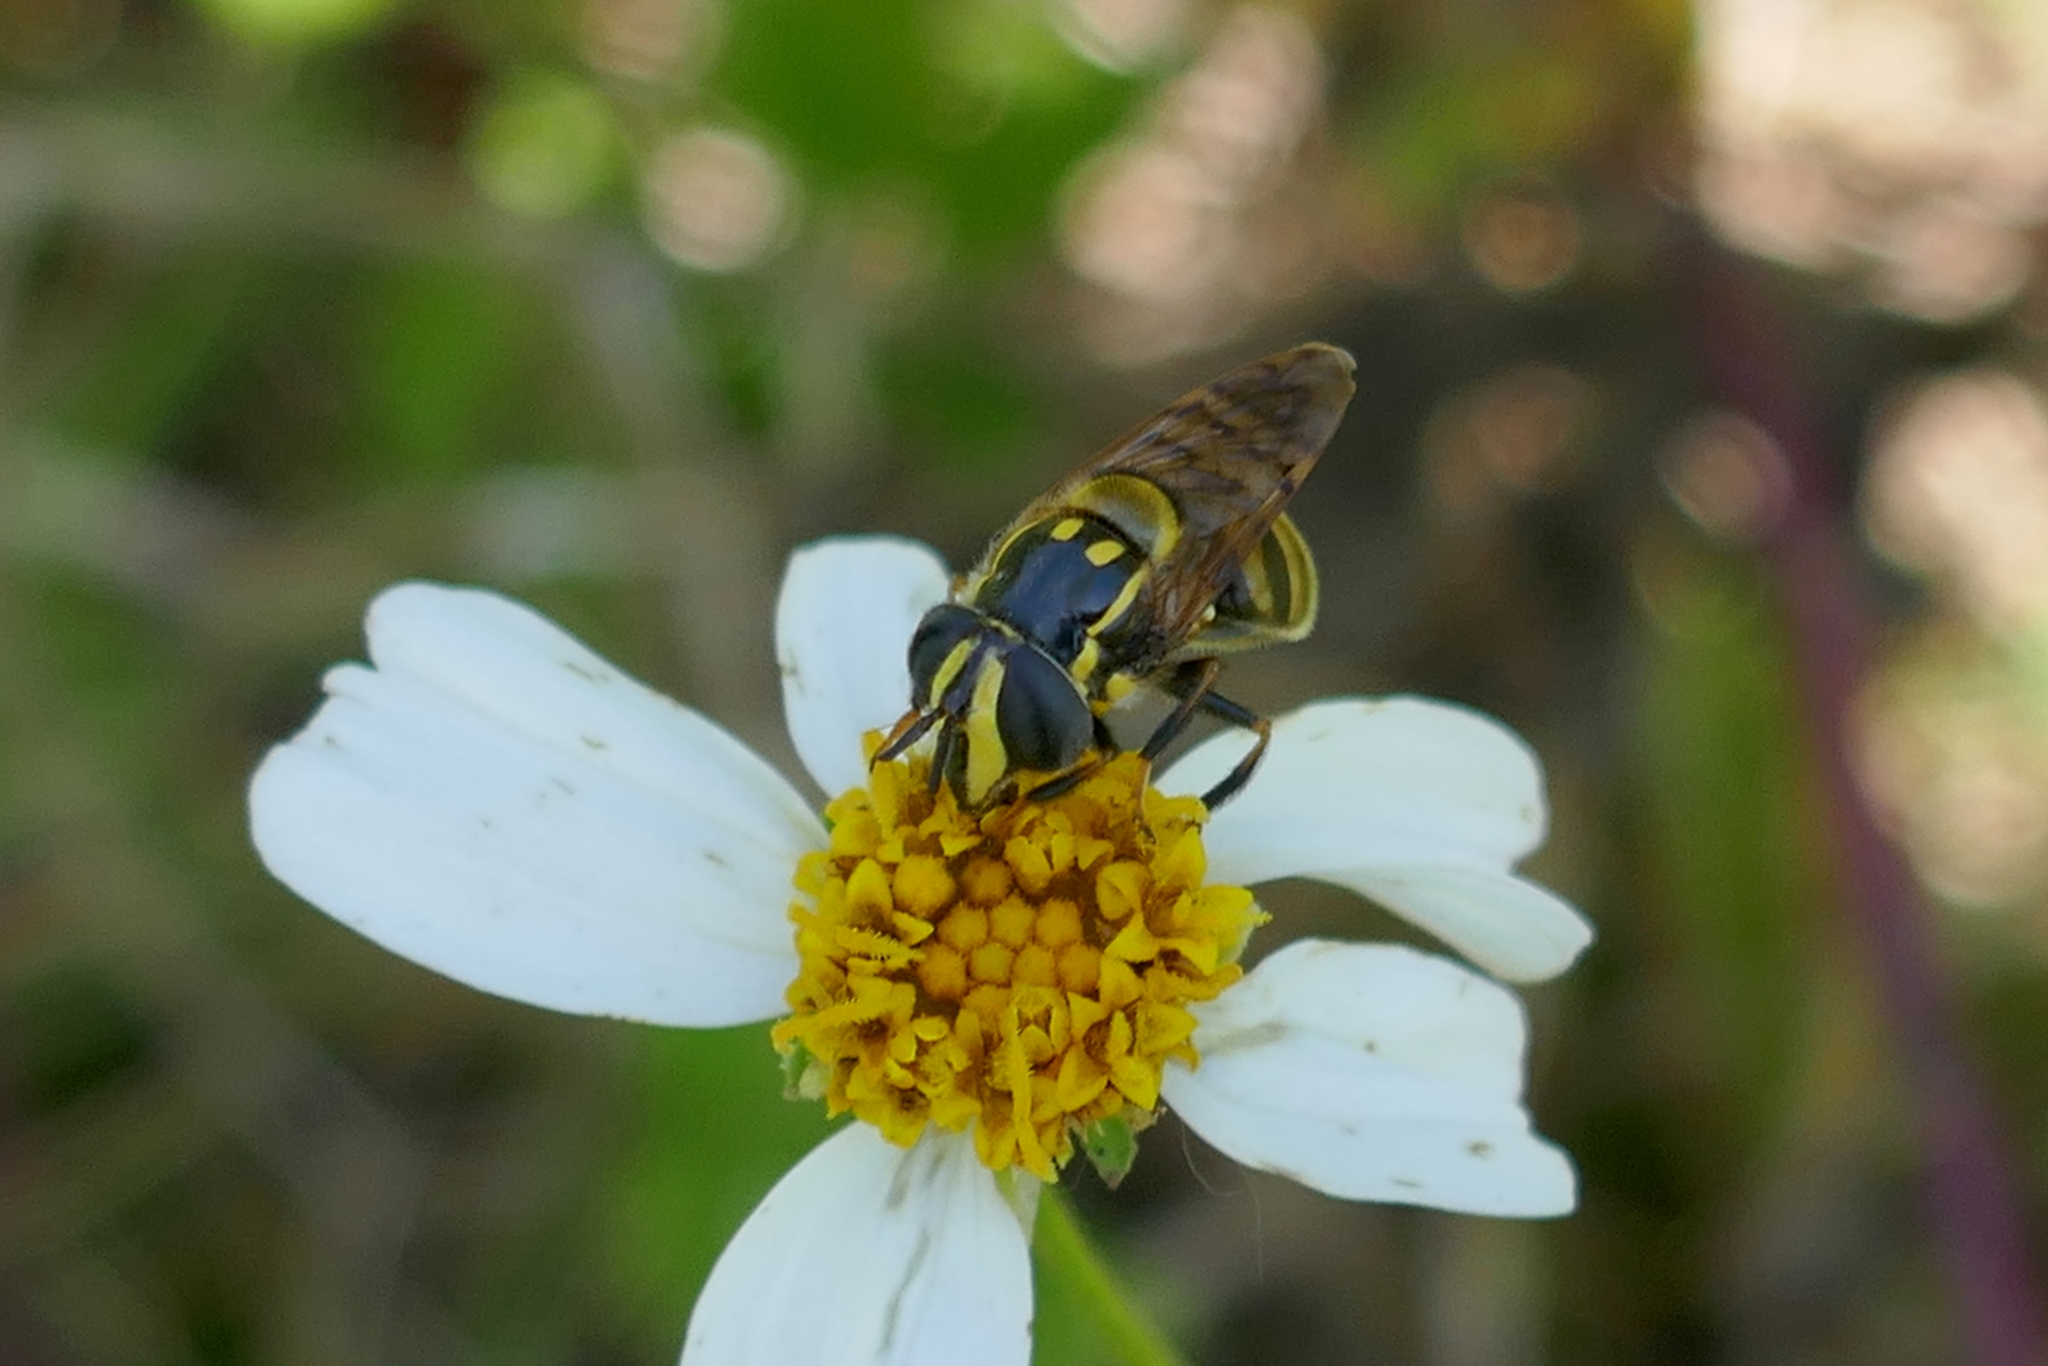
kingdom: Animalia
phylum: Arthropoda
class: Insecta
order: Diptera
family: Syrphidae
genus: Copestylum
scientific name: Copestylum vittatum
